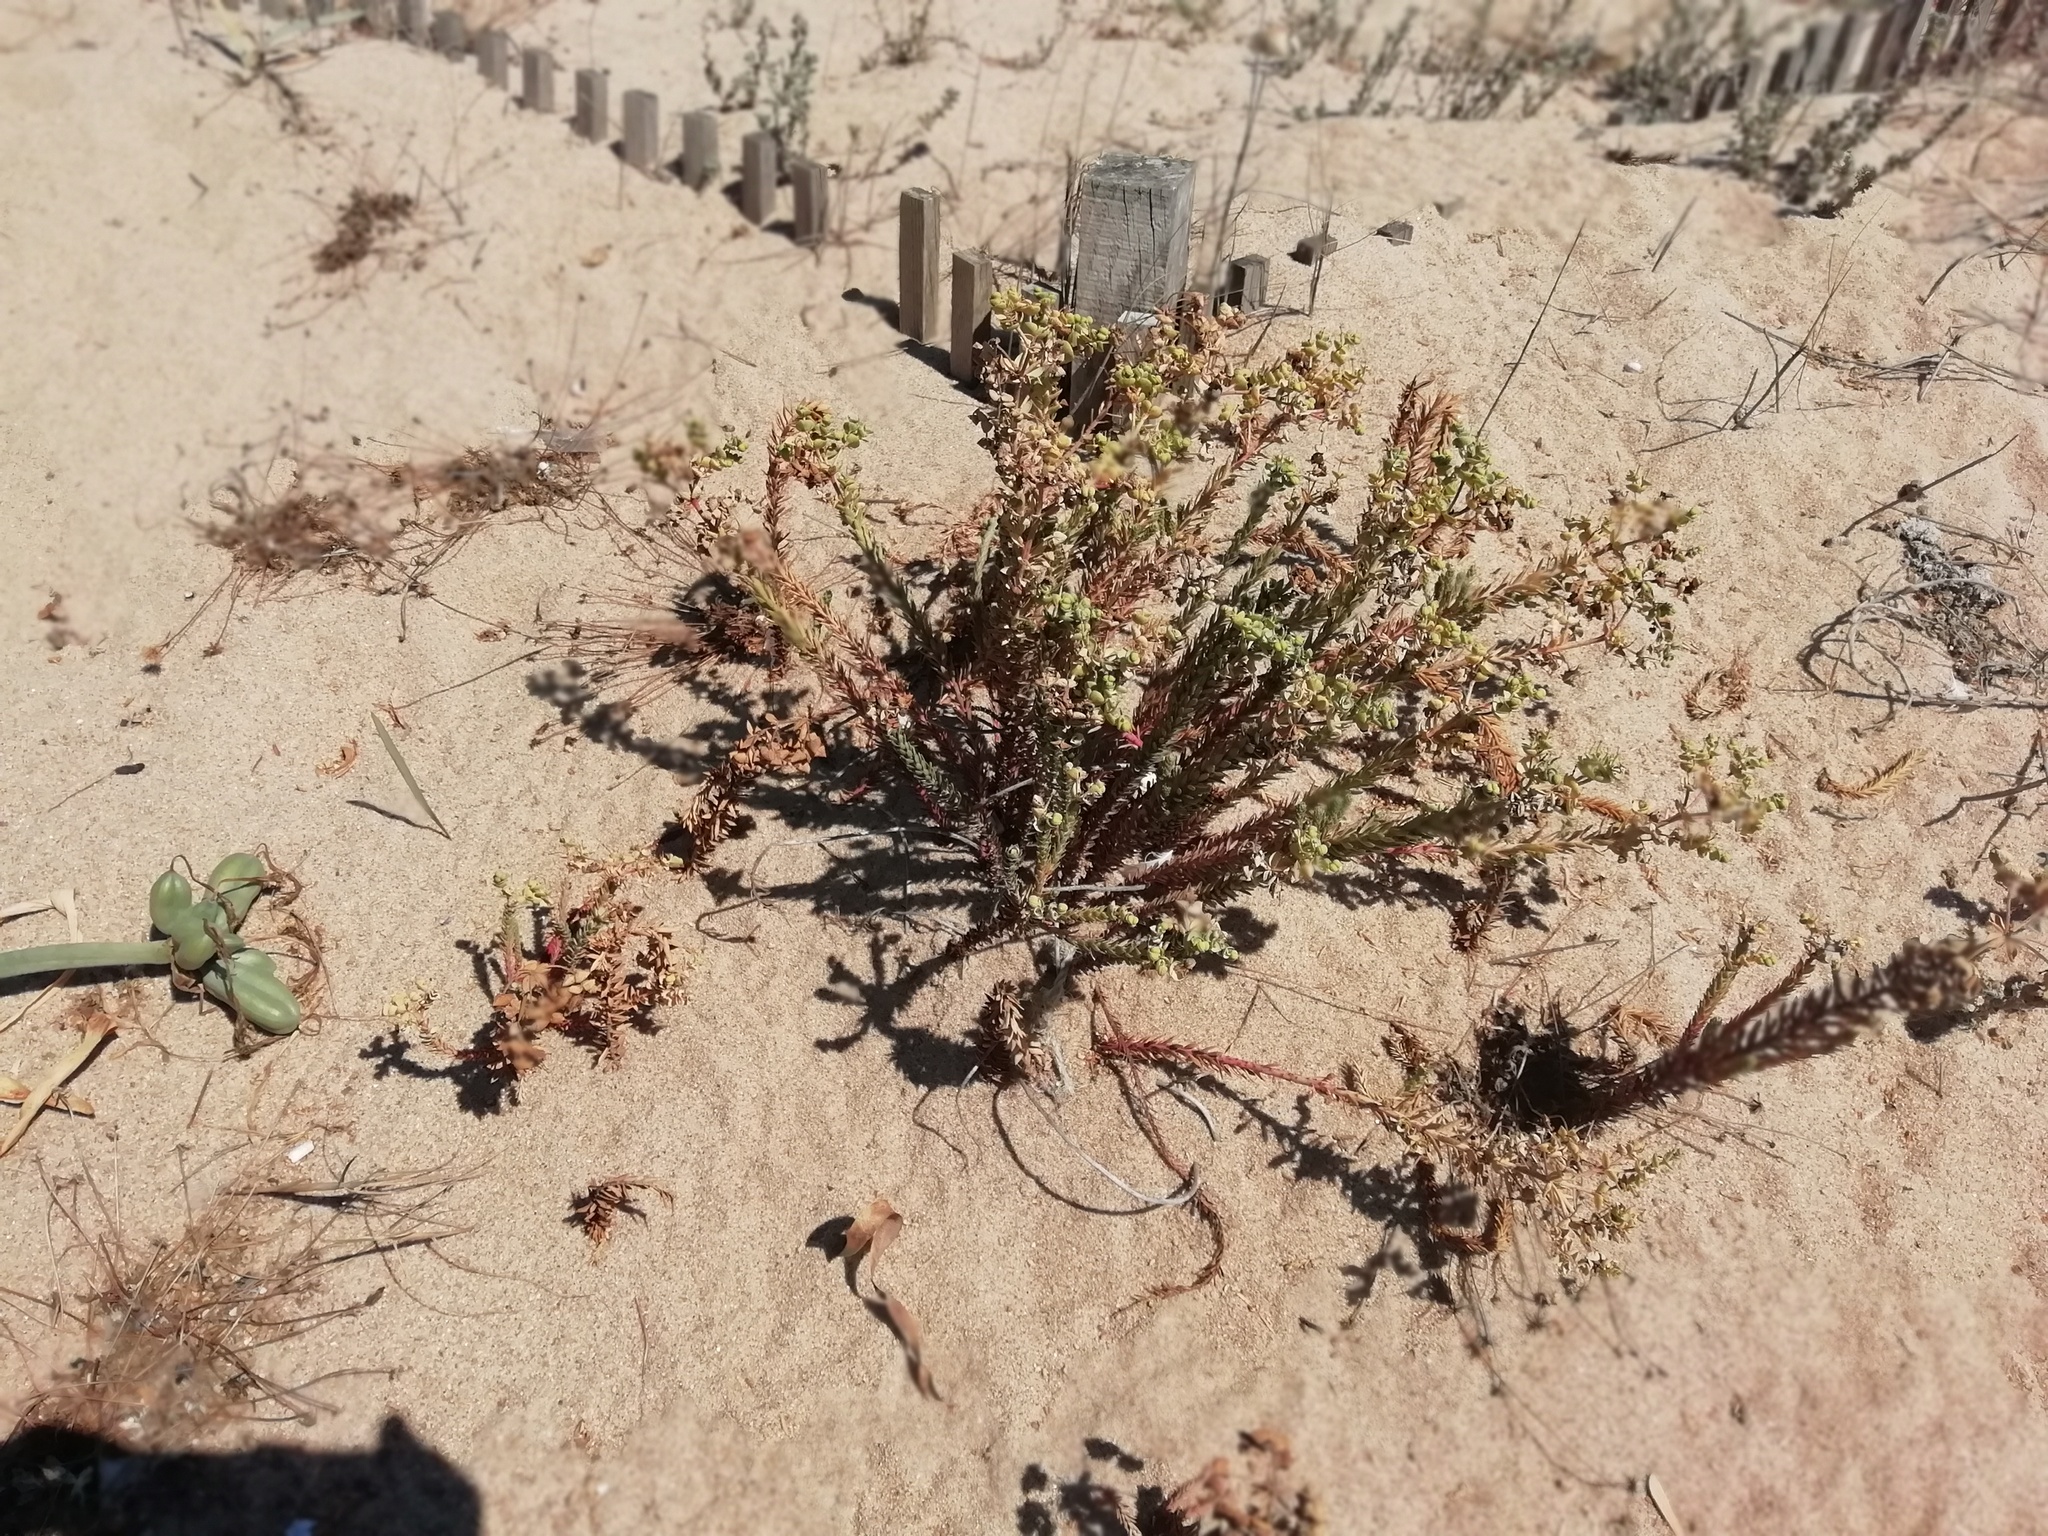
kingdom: Plantae
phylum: Tracheophyta
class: Magnoliopsida
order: Malpighiales
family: Euphorbiaceae
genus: Euphorbia
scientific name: Euphorbia paralias
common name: Sea spurge
